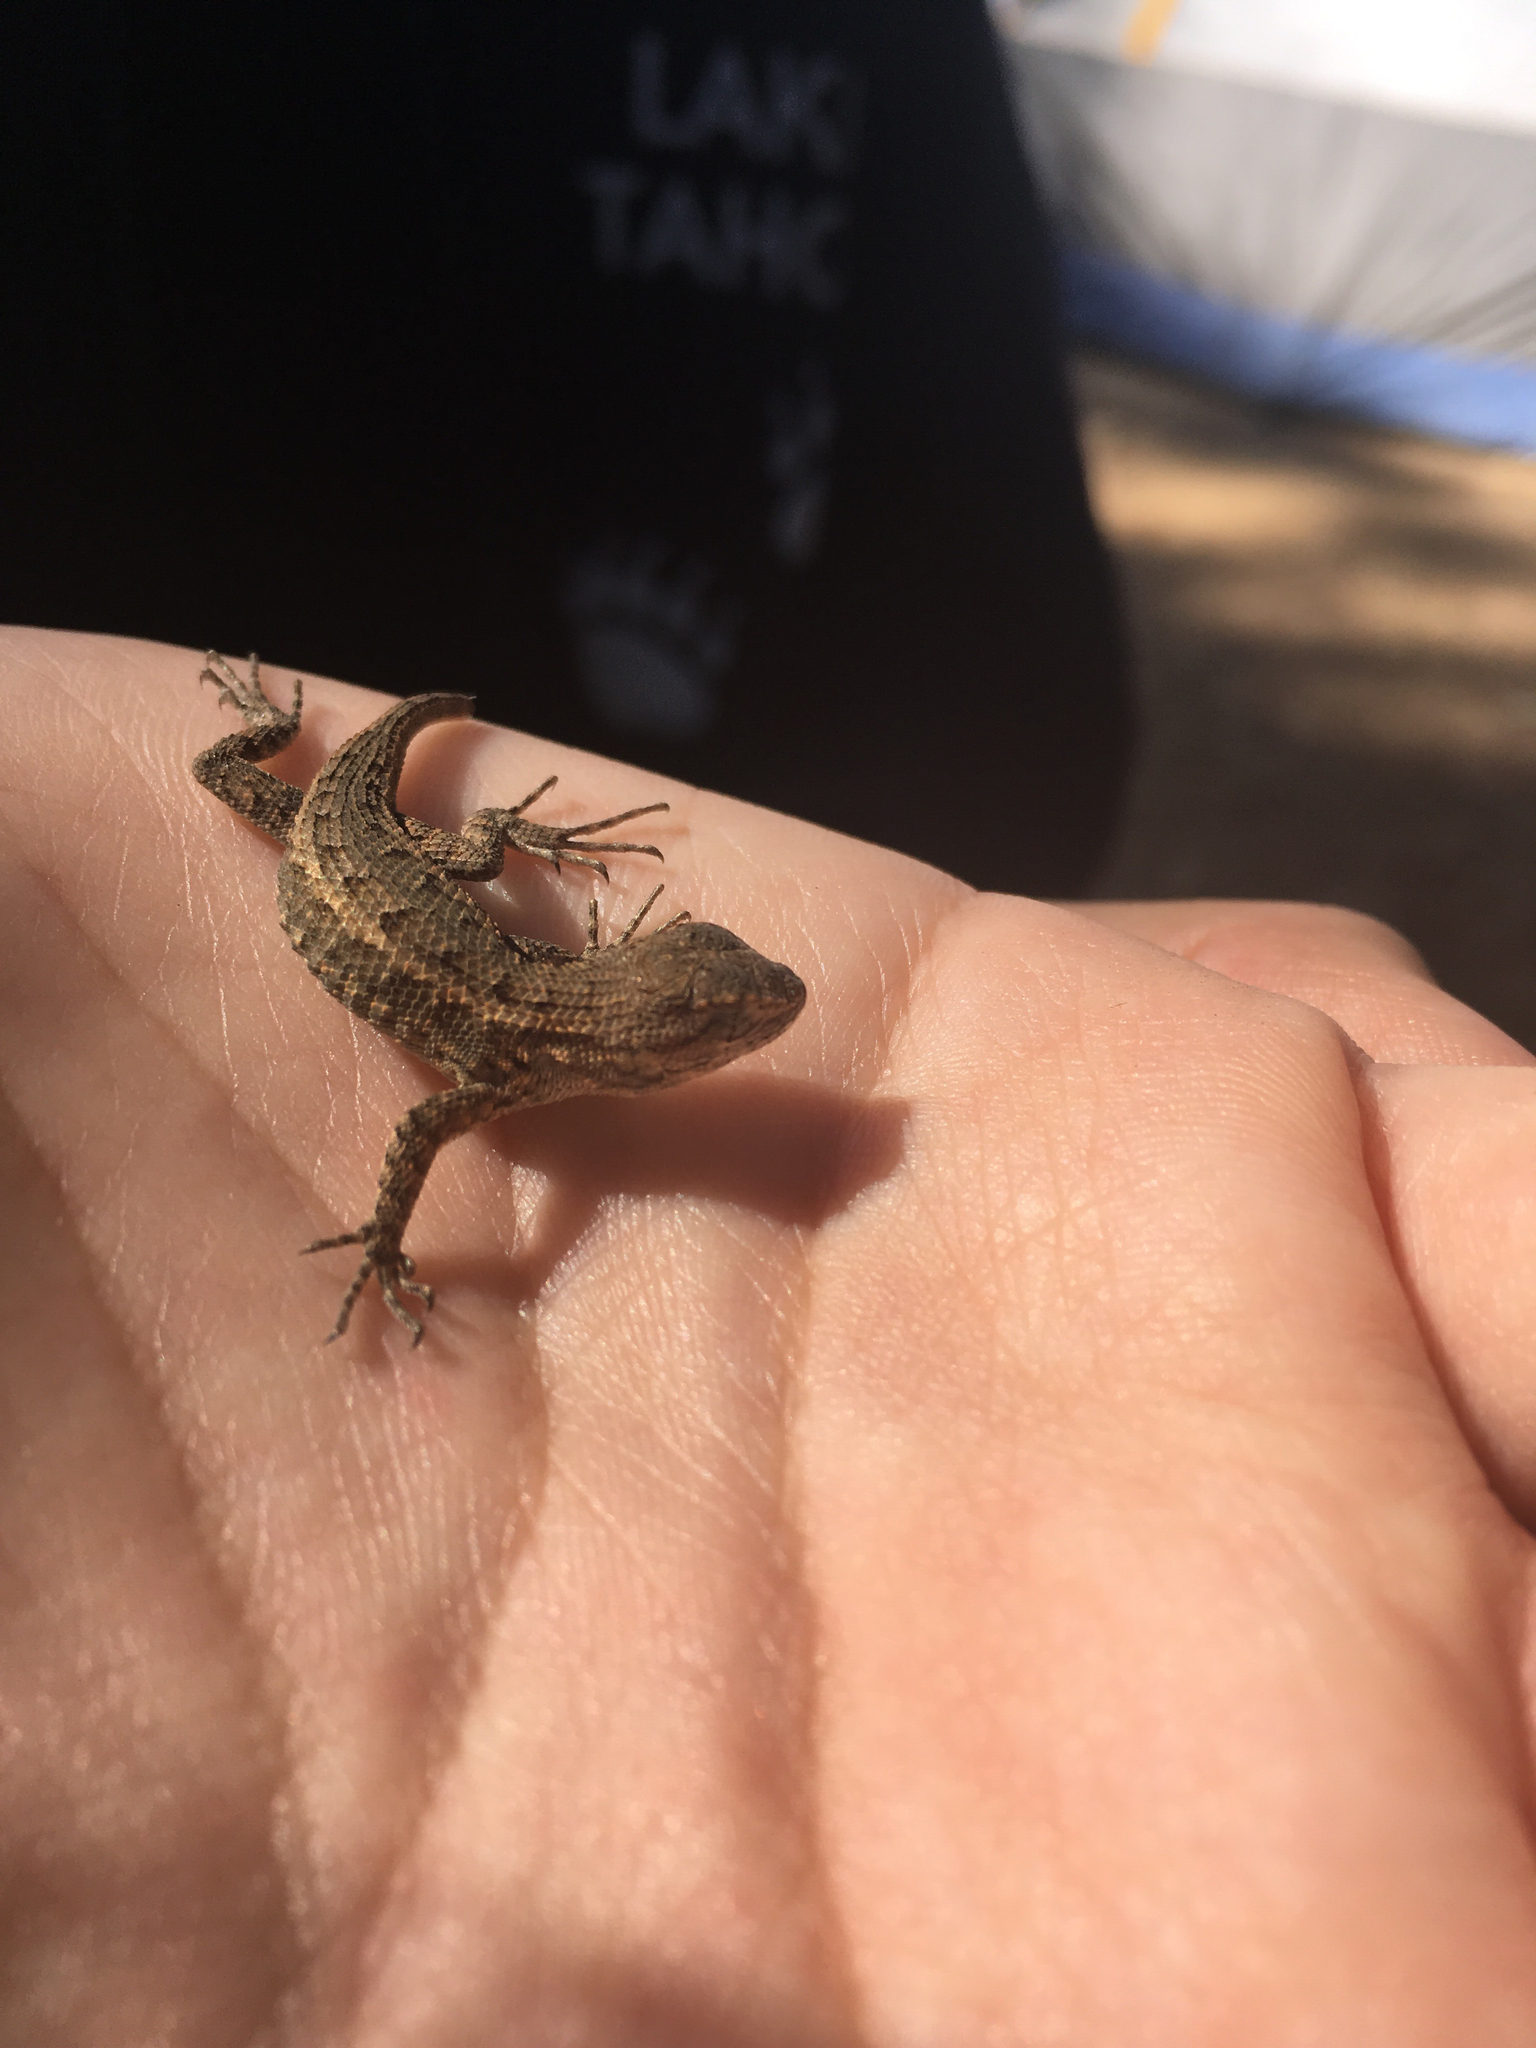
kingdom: Animalia
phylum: Chordata
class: Squamata
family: Phrynosomatidae
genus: Sceloporus
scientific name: Sceloporus occidentalis
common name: Western fence lizard
